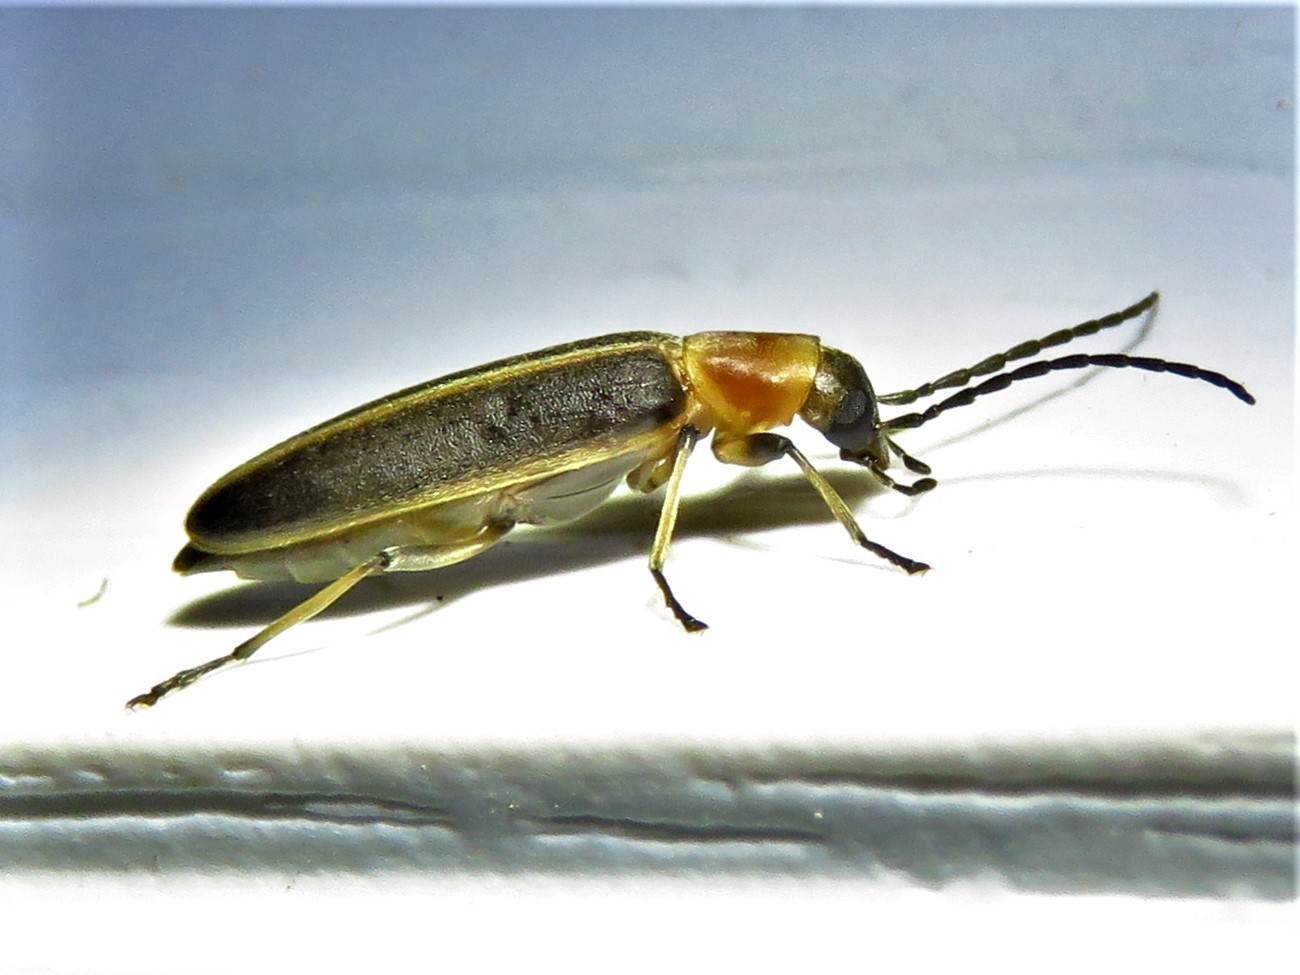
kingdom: Animalia
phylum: Arthropoda
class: Insecta
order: Coleoptera
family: Oedemeridae
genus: Oxycopis
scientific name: Oxycopis mimetica
